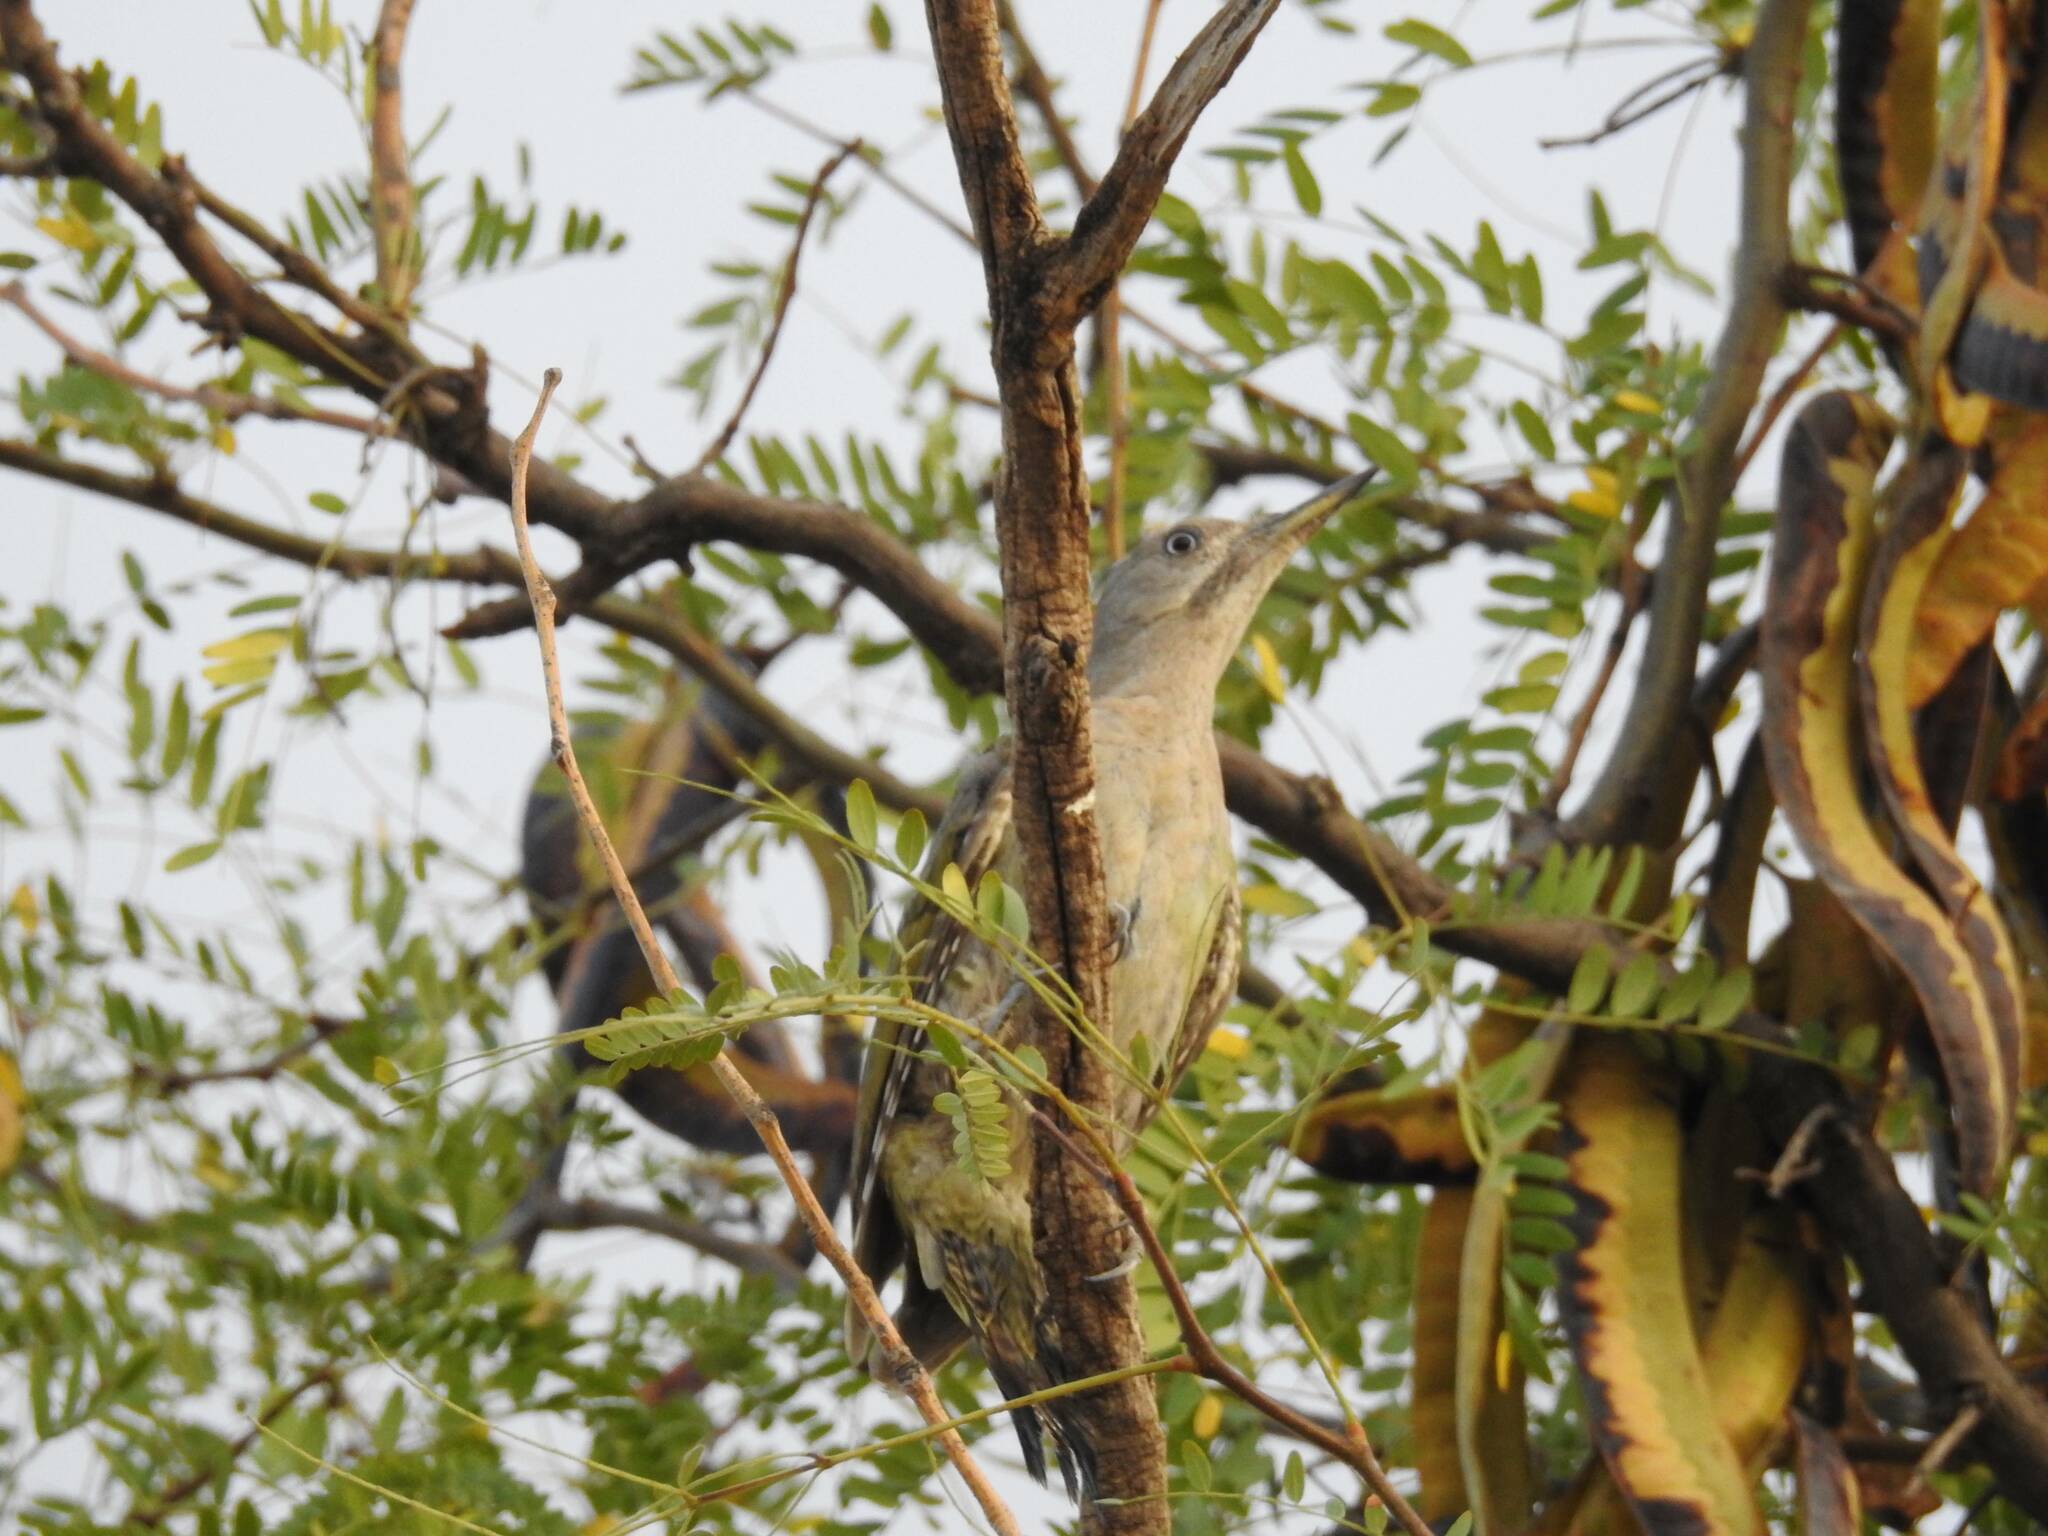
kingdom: Animalia
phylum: Chordata
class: Aves
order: Piciformes
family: Picidae
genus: Picus
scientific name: Picus vaillantii
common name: Levaillant's woodpecker
